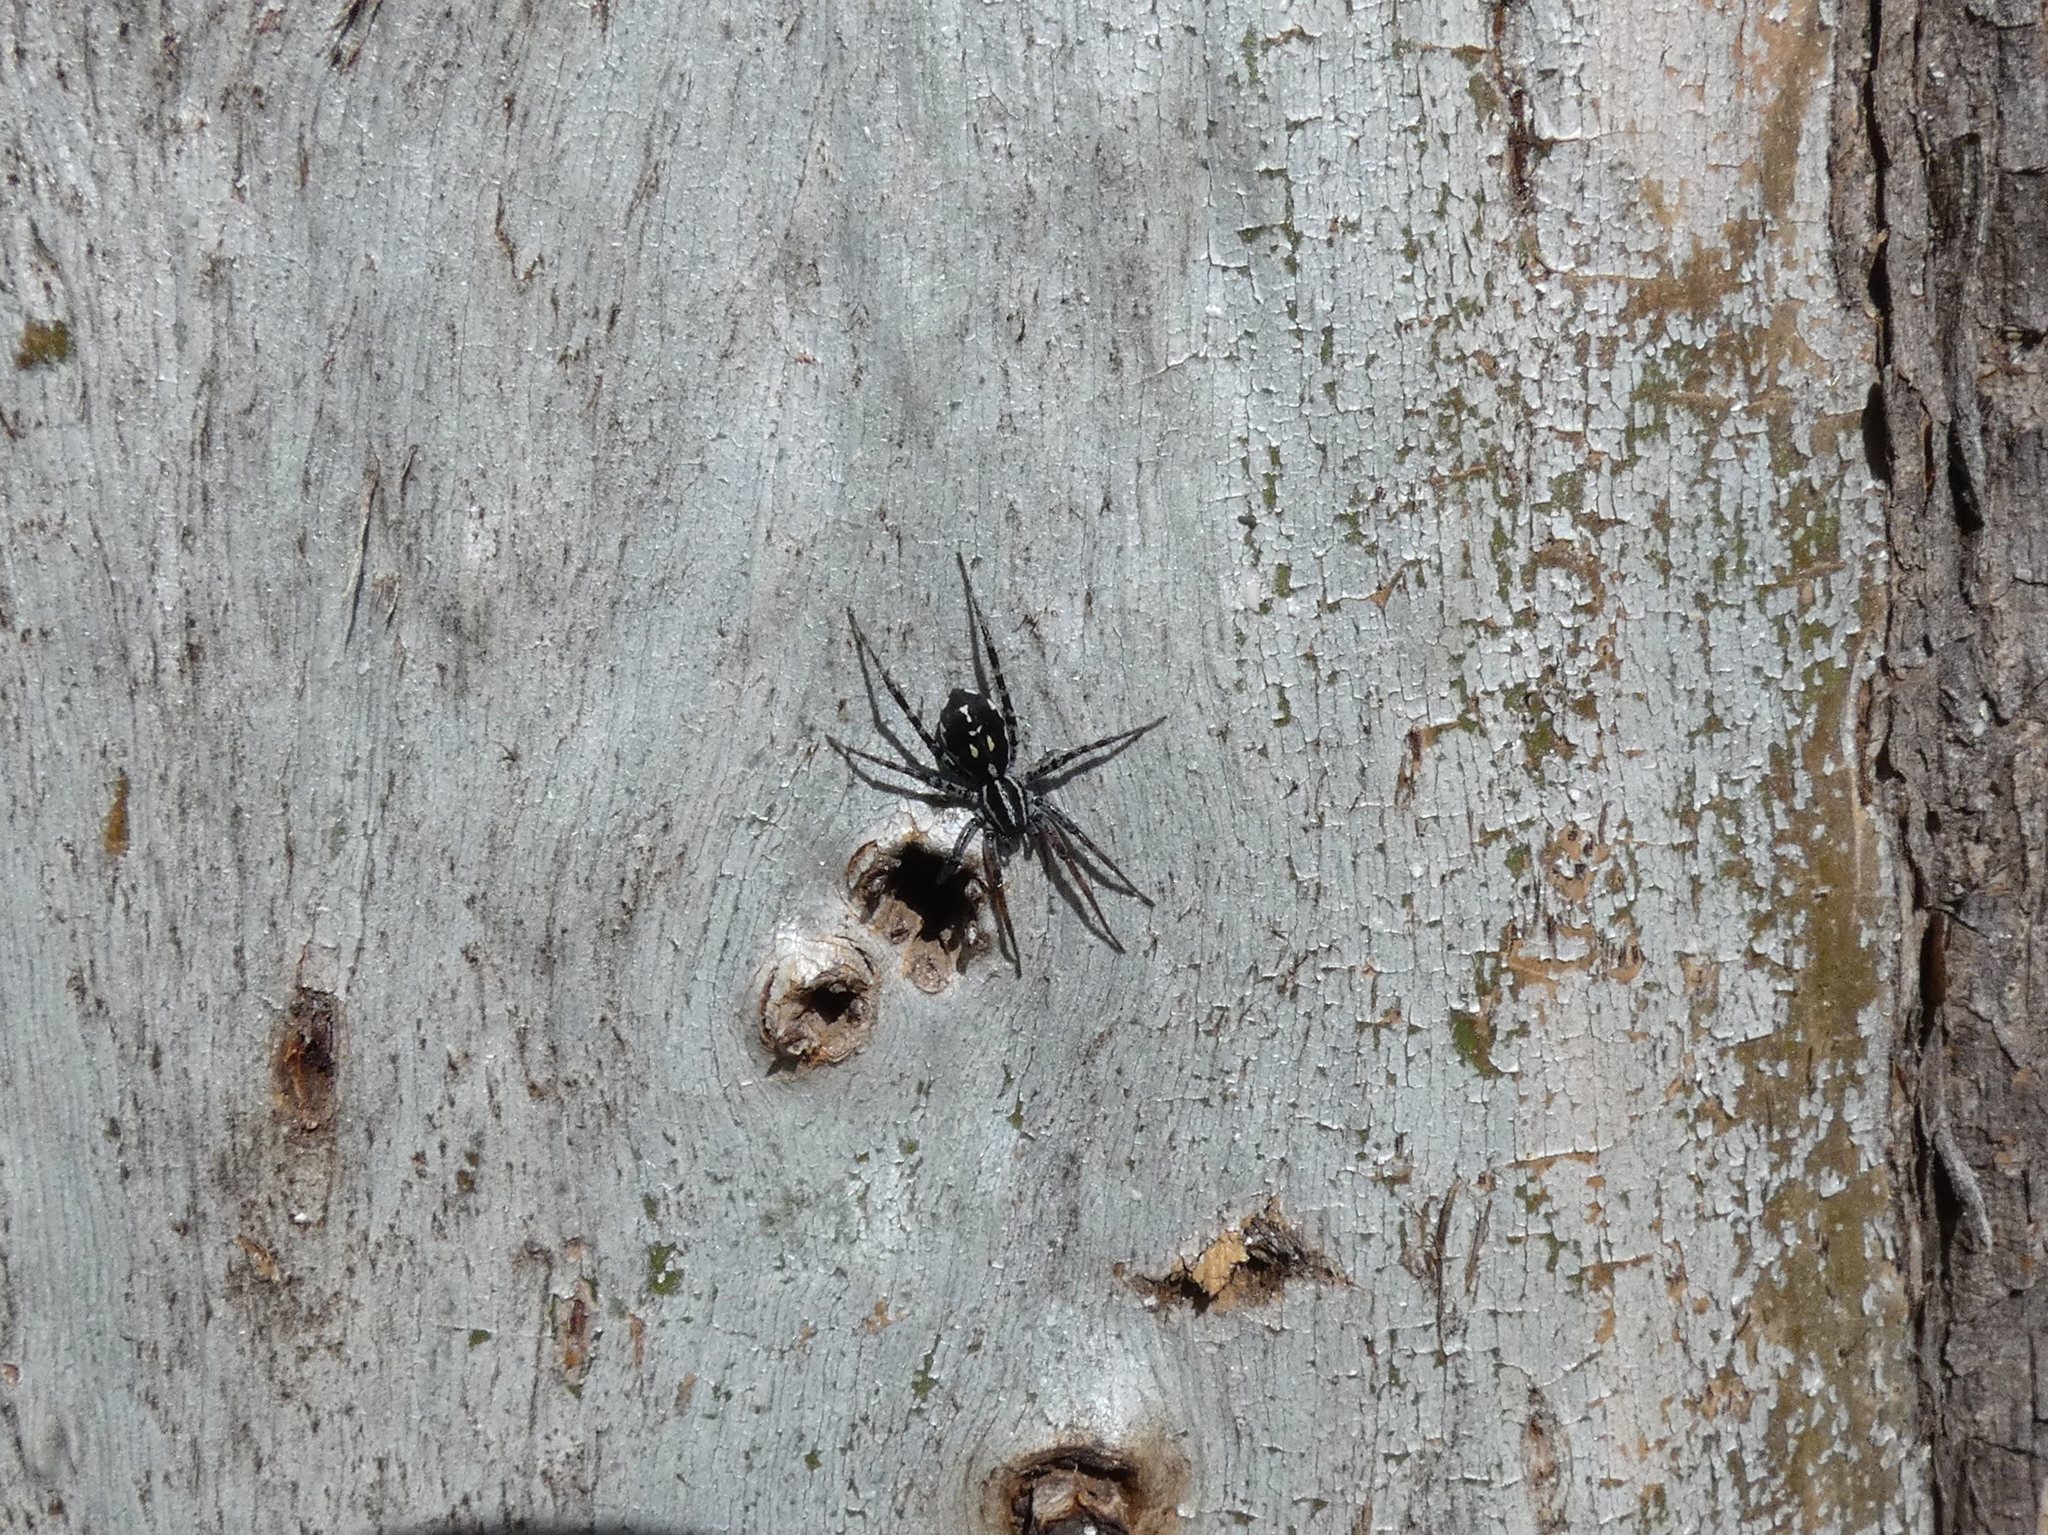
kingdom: Animalia
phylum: Arthropoda
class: Arachnida
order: Araneae
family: Corinnidae
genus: Nyssus
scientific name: Nyssus coloripes
